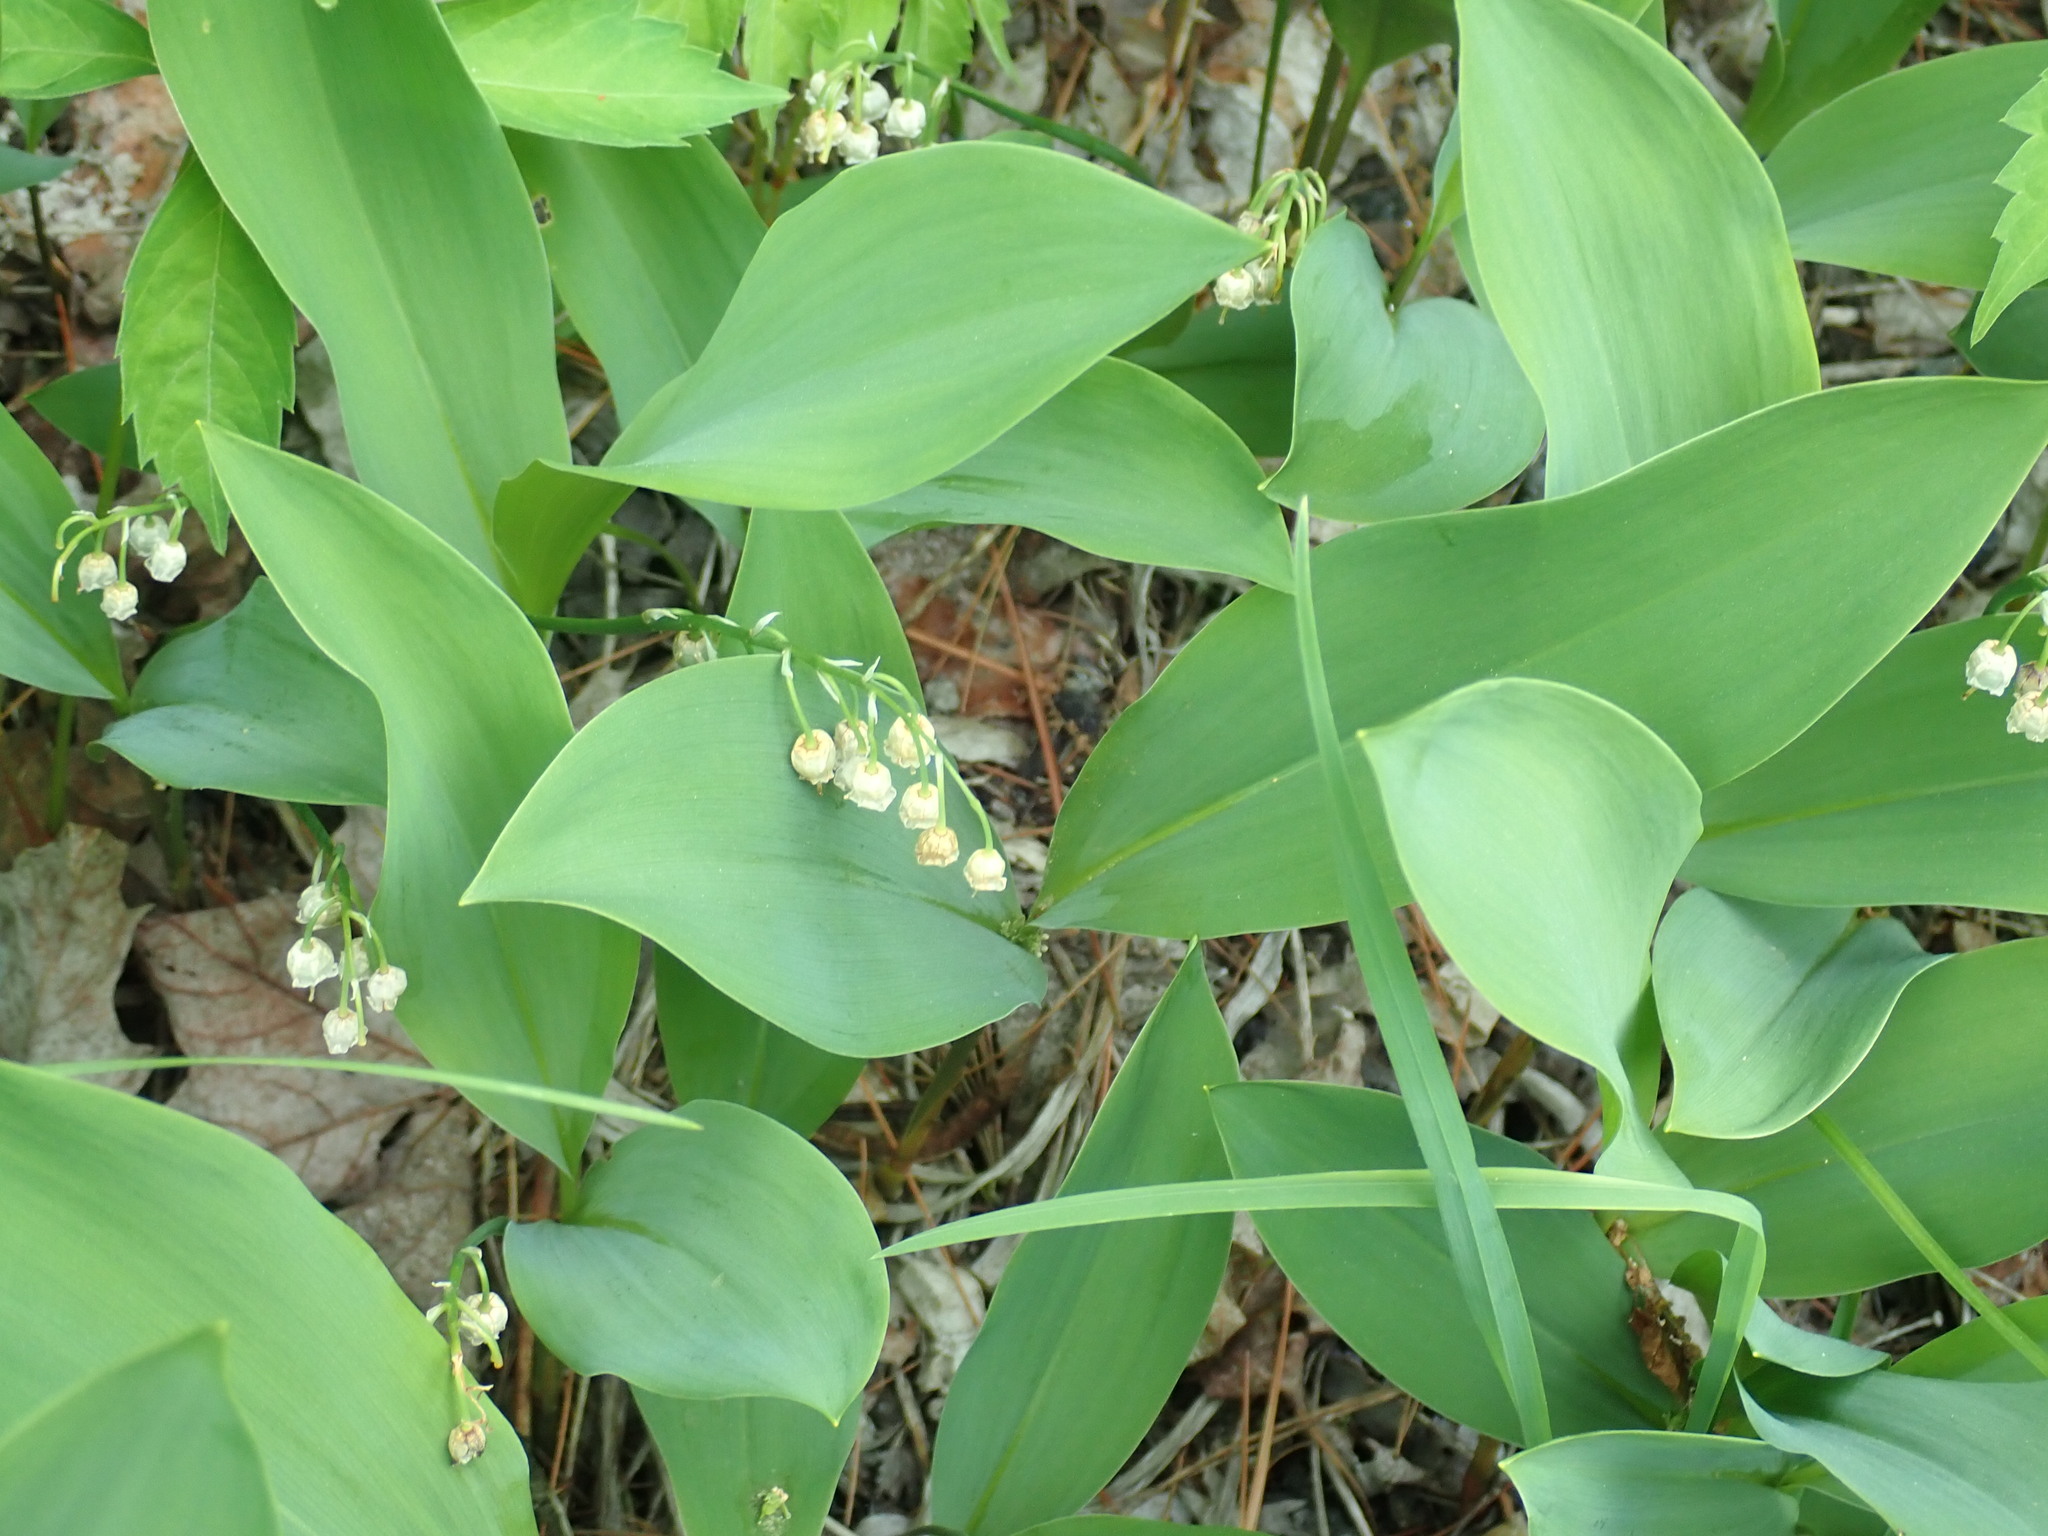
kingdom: Plantae
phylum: Tracheophyta
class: Liliopsida
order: Asparagales
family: Asparagaceae
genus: Convallaria
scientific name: Convallaria majalis
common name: Lily-of-the-valley
